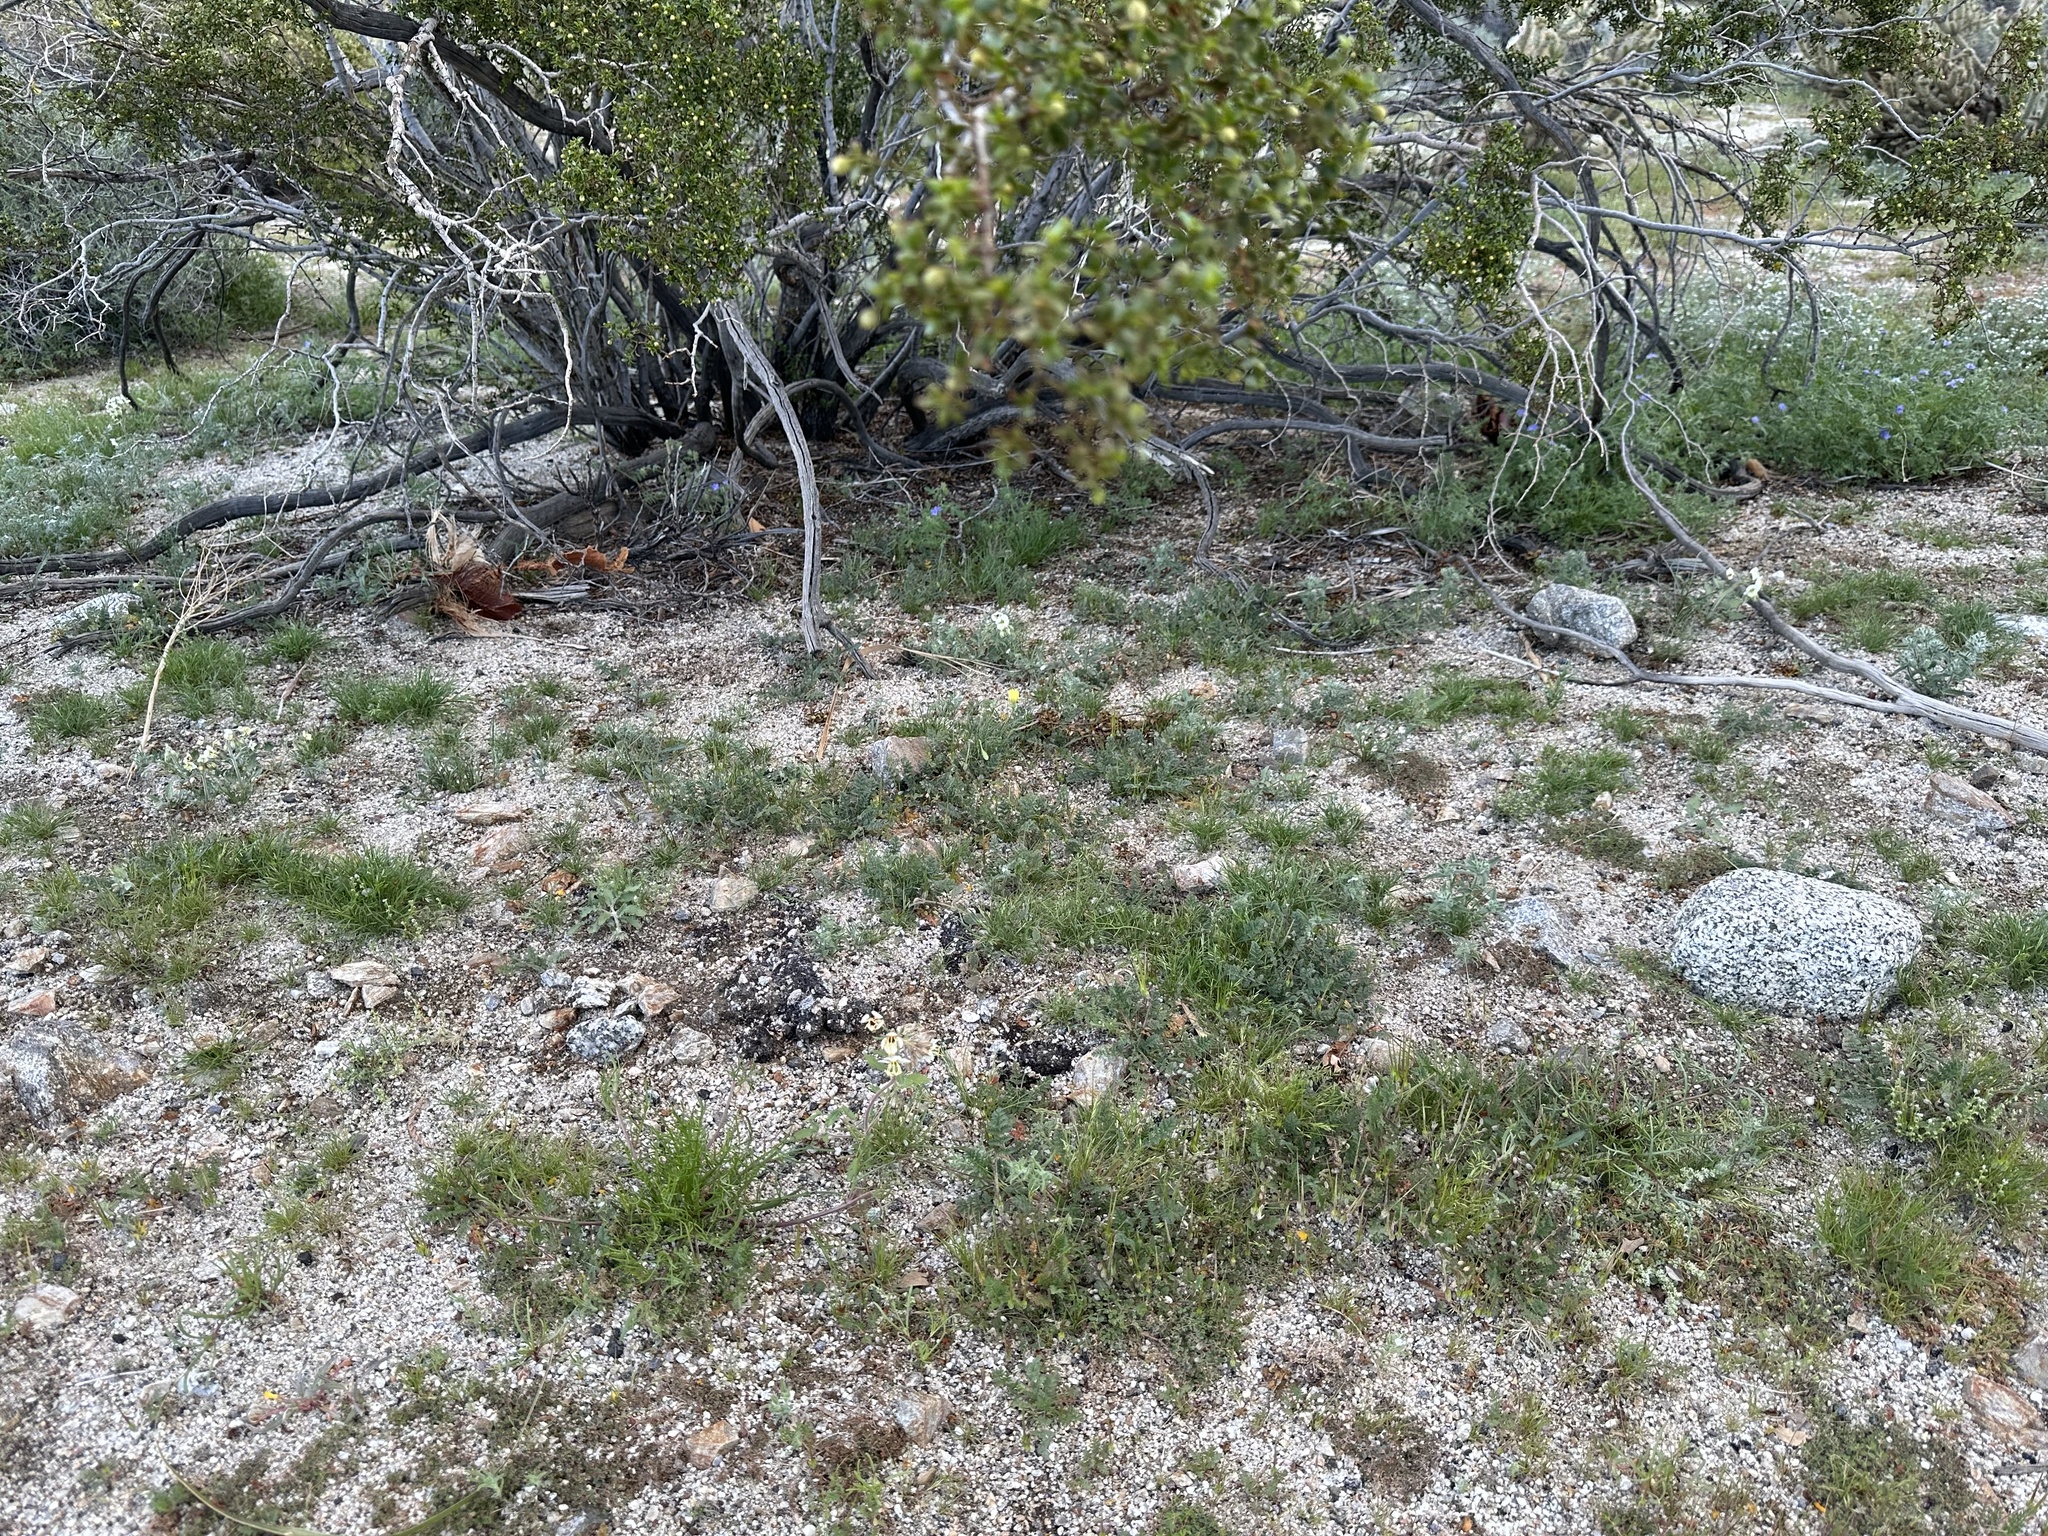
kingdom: Plantae
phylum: Tracheophyta
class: Magnoliopsida
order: Myrtales
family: Onagraceae
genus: Chylismia
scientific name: Chylismia claviformis
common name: Browneyes
